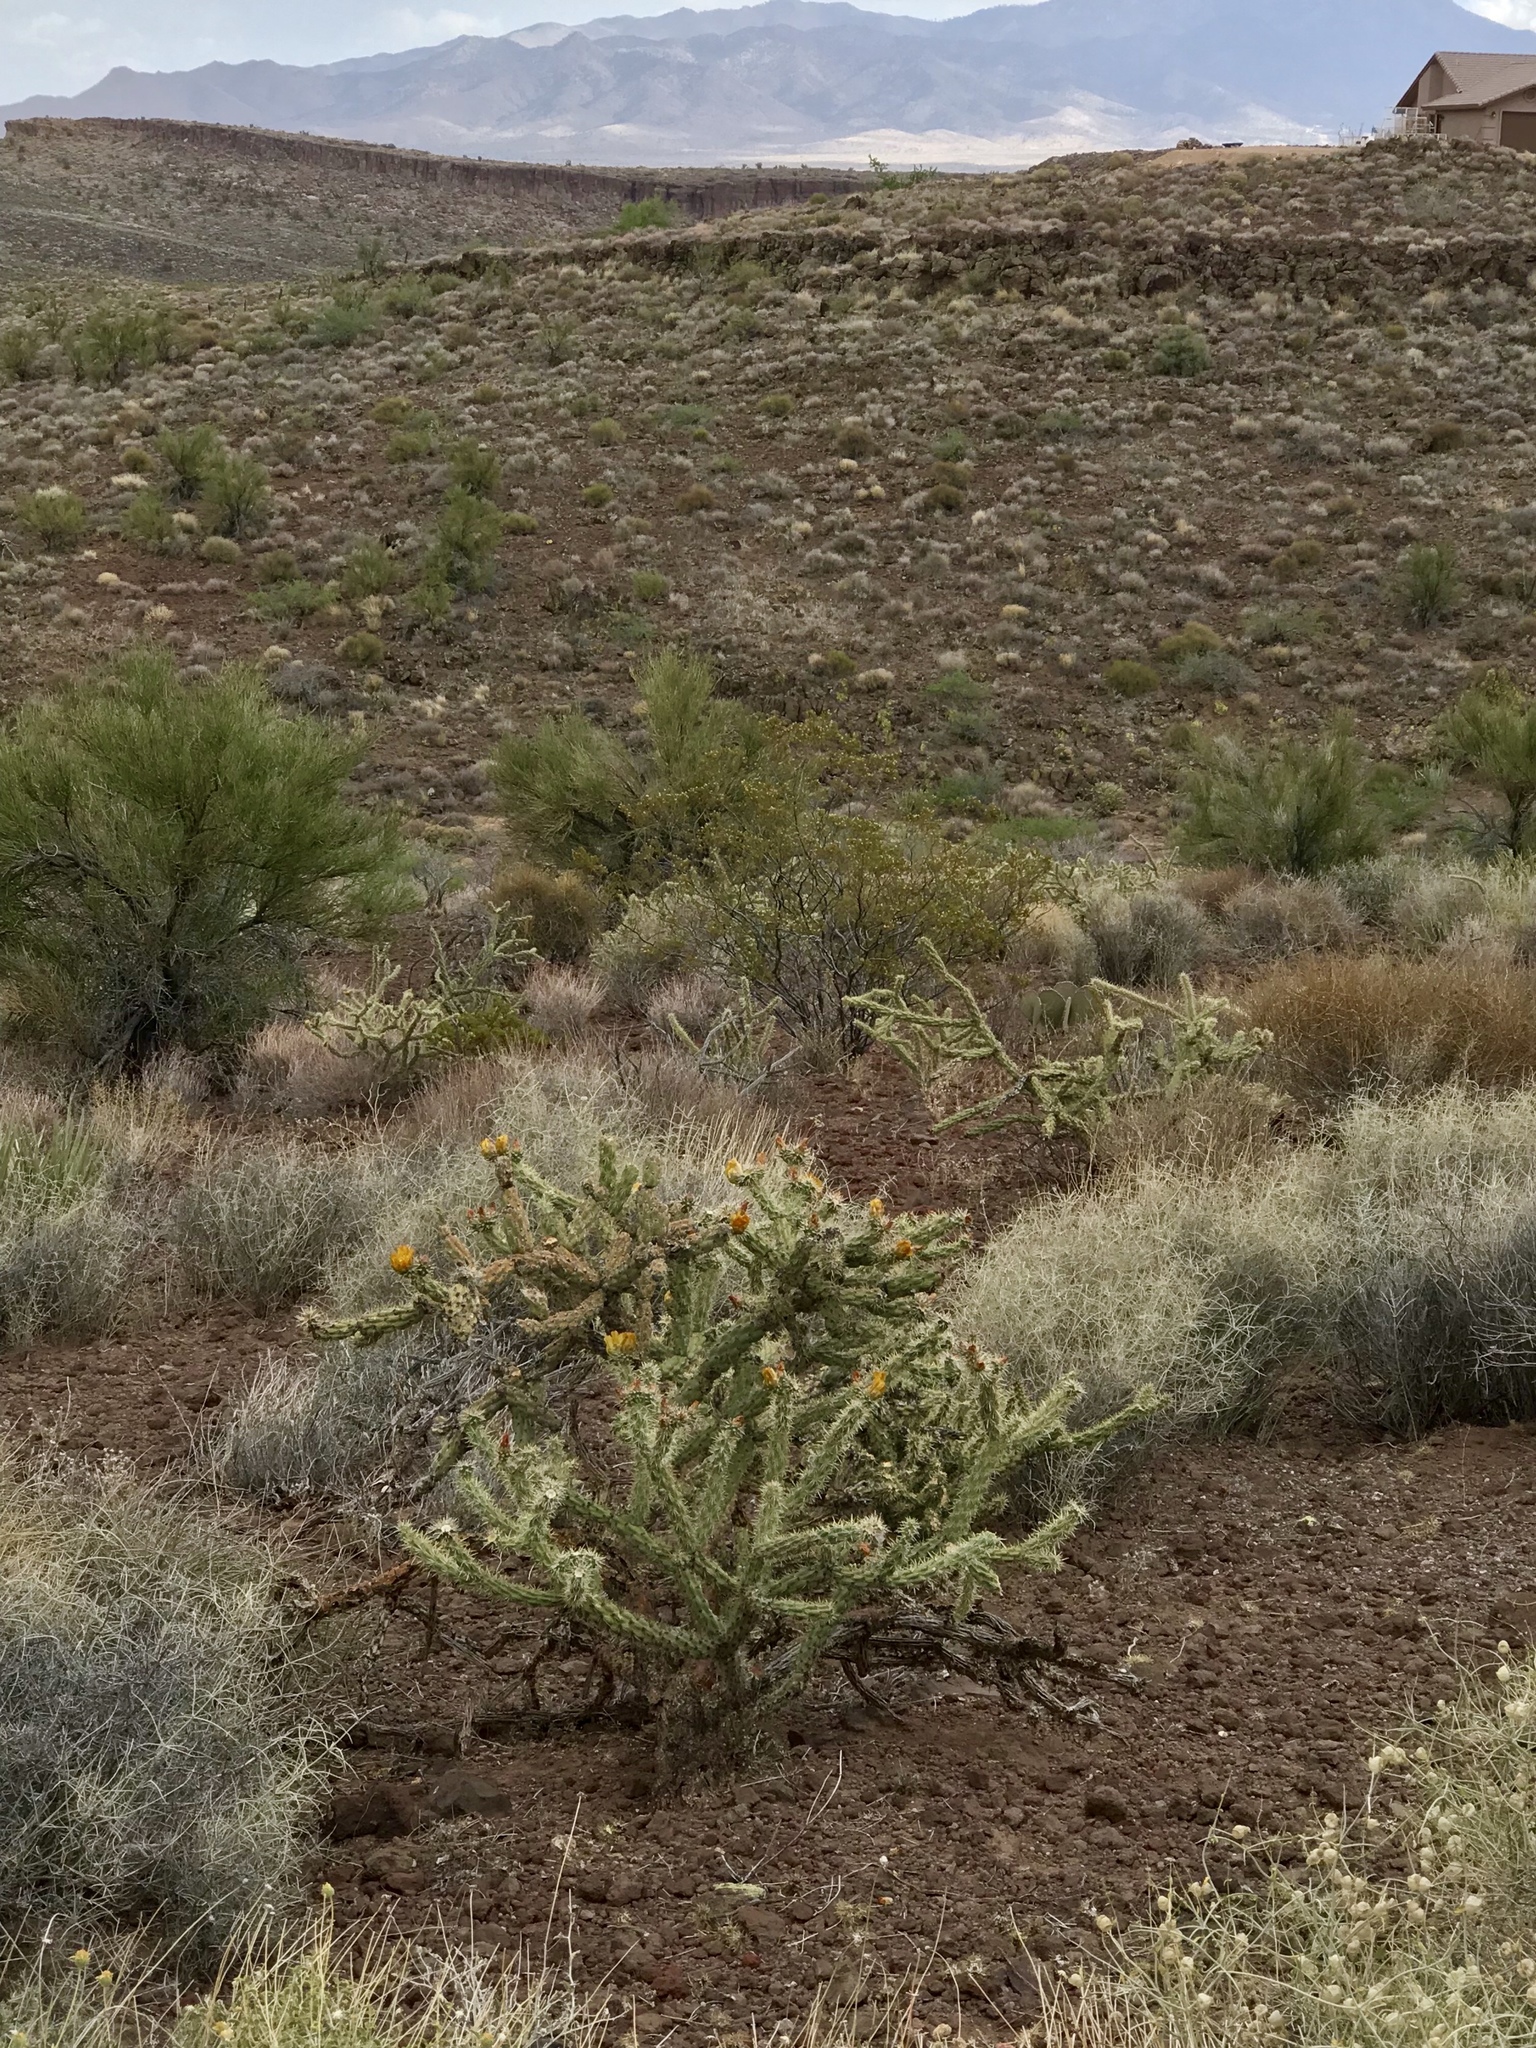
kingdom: Plantae
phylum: Tracheophyta
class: Magnoliopsida
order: Caryophyllales
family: Cactaceae
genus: Cylindropuntia
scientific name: Cylindropuntia acanthocarpa
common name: Buckhorn cholla
